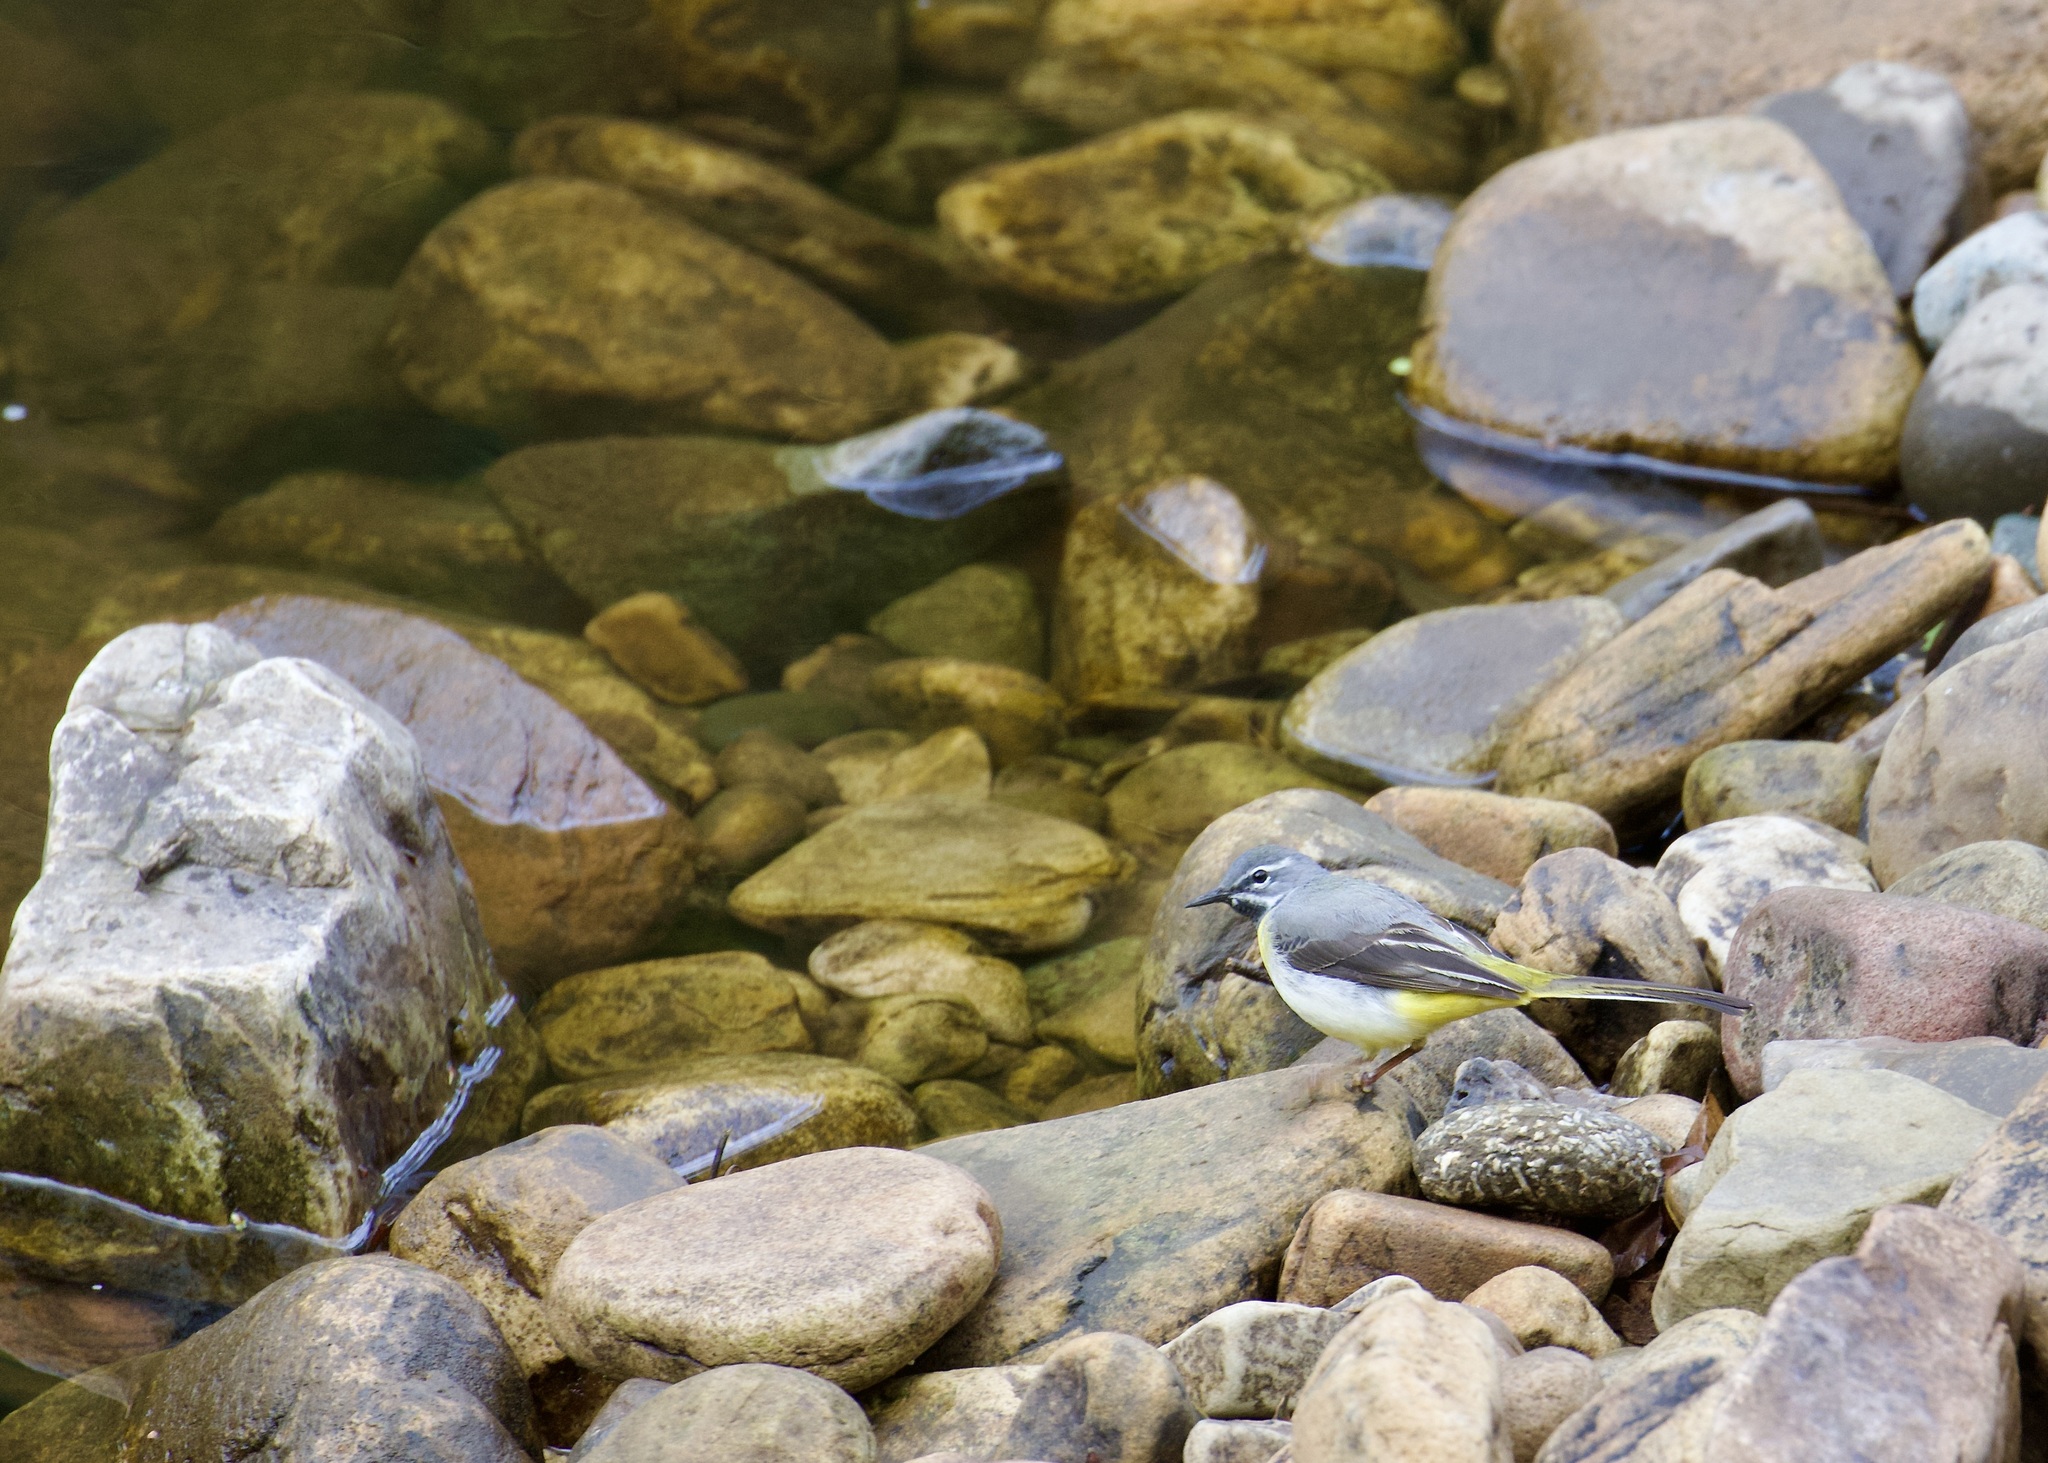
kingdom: Animalia
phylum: Chordata
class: Aves
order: Passeriformes
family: Motacillidae
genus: Motacilla
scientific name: Motacilla cinerea
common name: Grey wagtail
